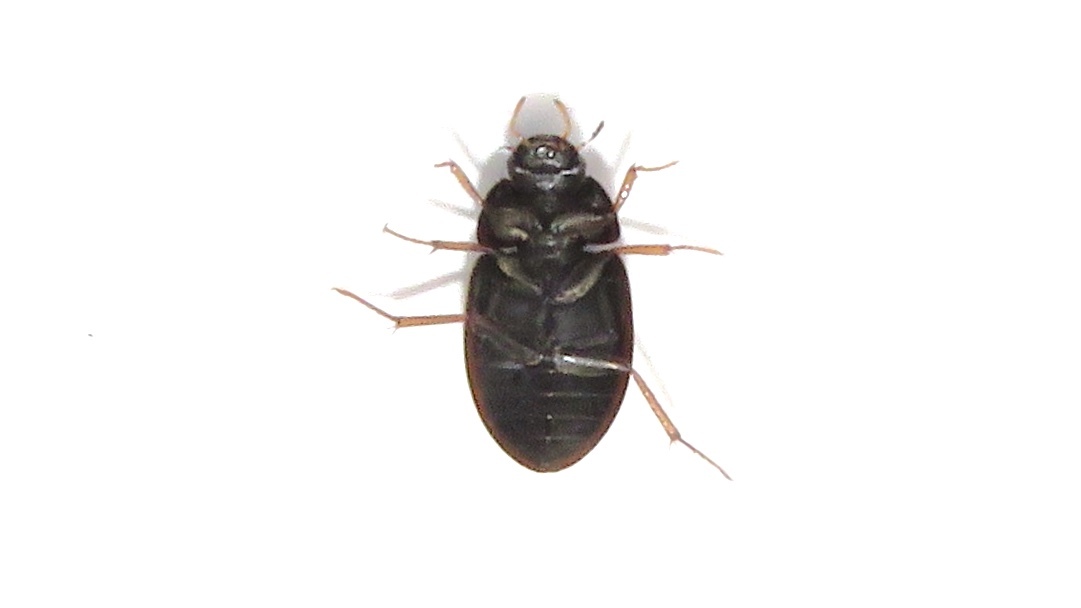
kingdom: Animalia
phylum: Arthropoda
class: Insecta
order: Coleoptera
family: Hydrophilidae
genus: Hydrobius
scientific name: Hydrobius fuscipes
